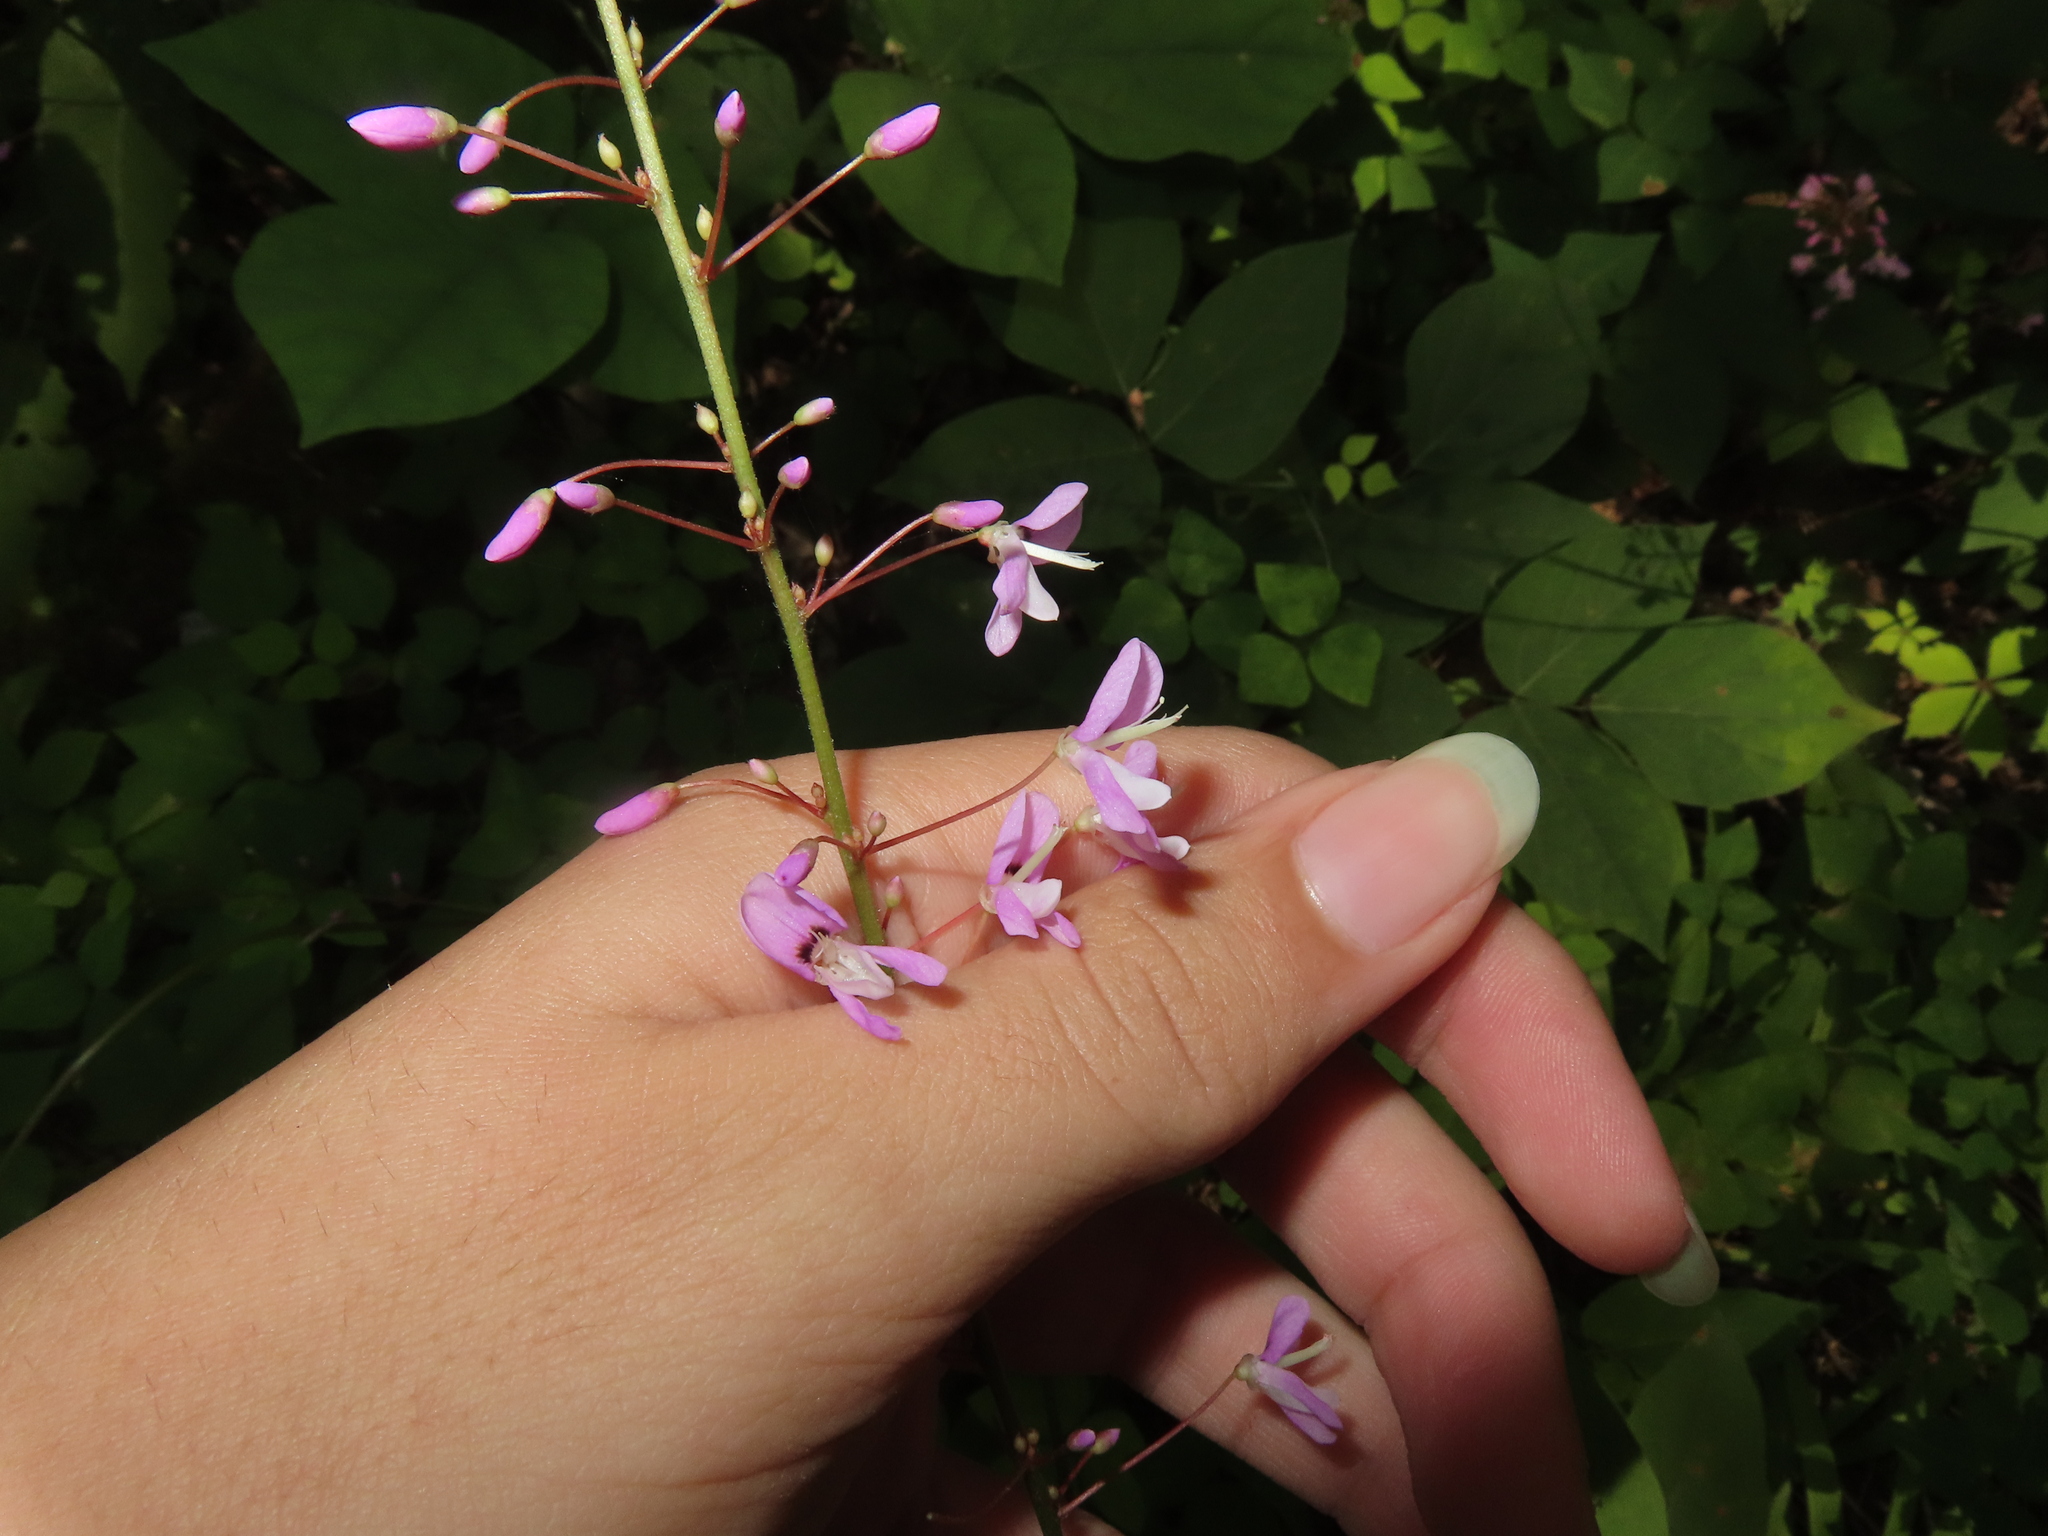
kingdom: Plantae
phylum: Tracheophyta
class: Magnoliopsida
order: Fabales
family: Fabaceae
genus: Hylodesmum
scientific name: Hylodesmum nudiflorum
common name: Bare-stemmed tick-trefoil
